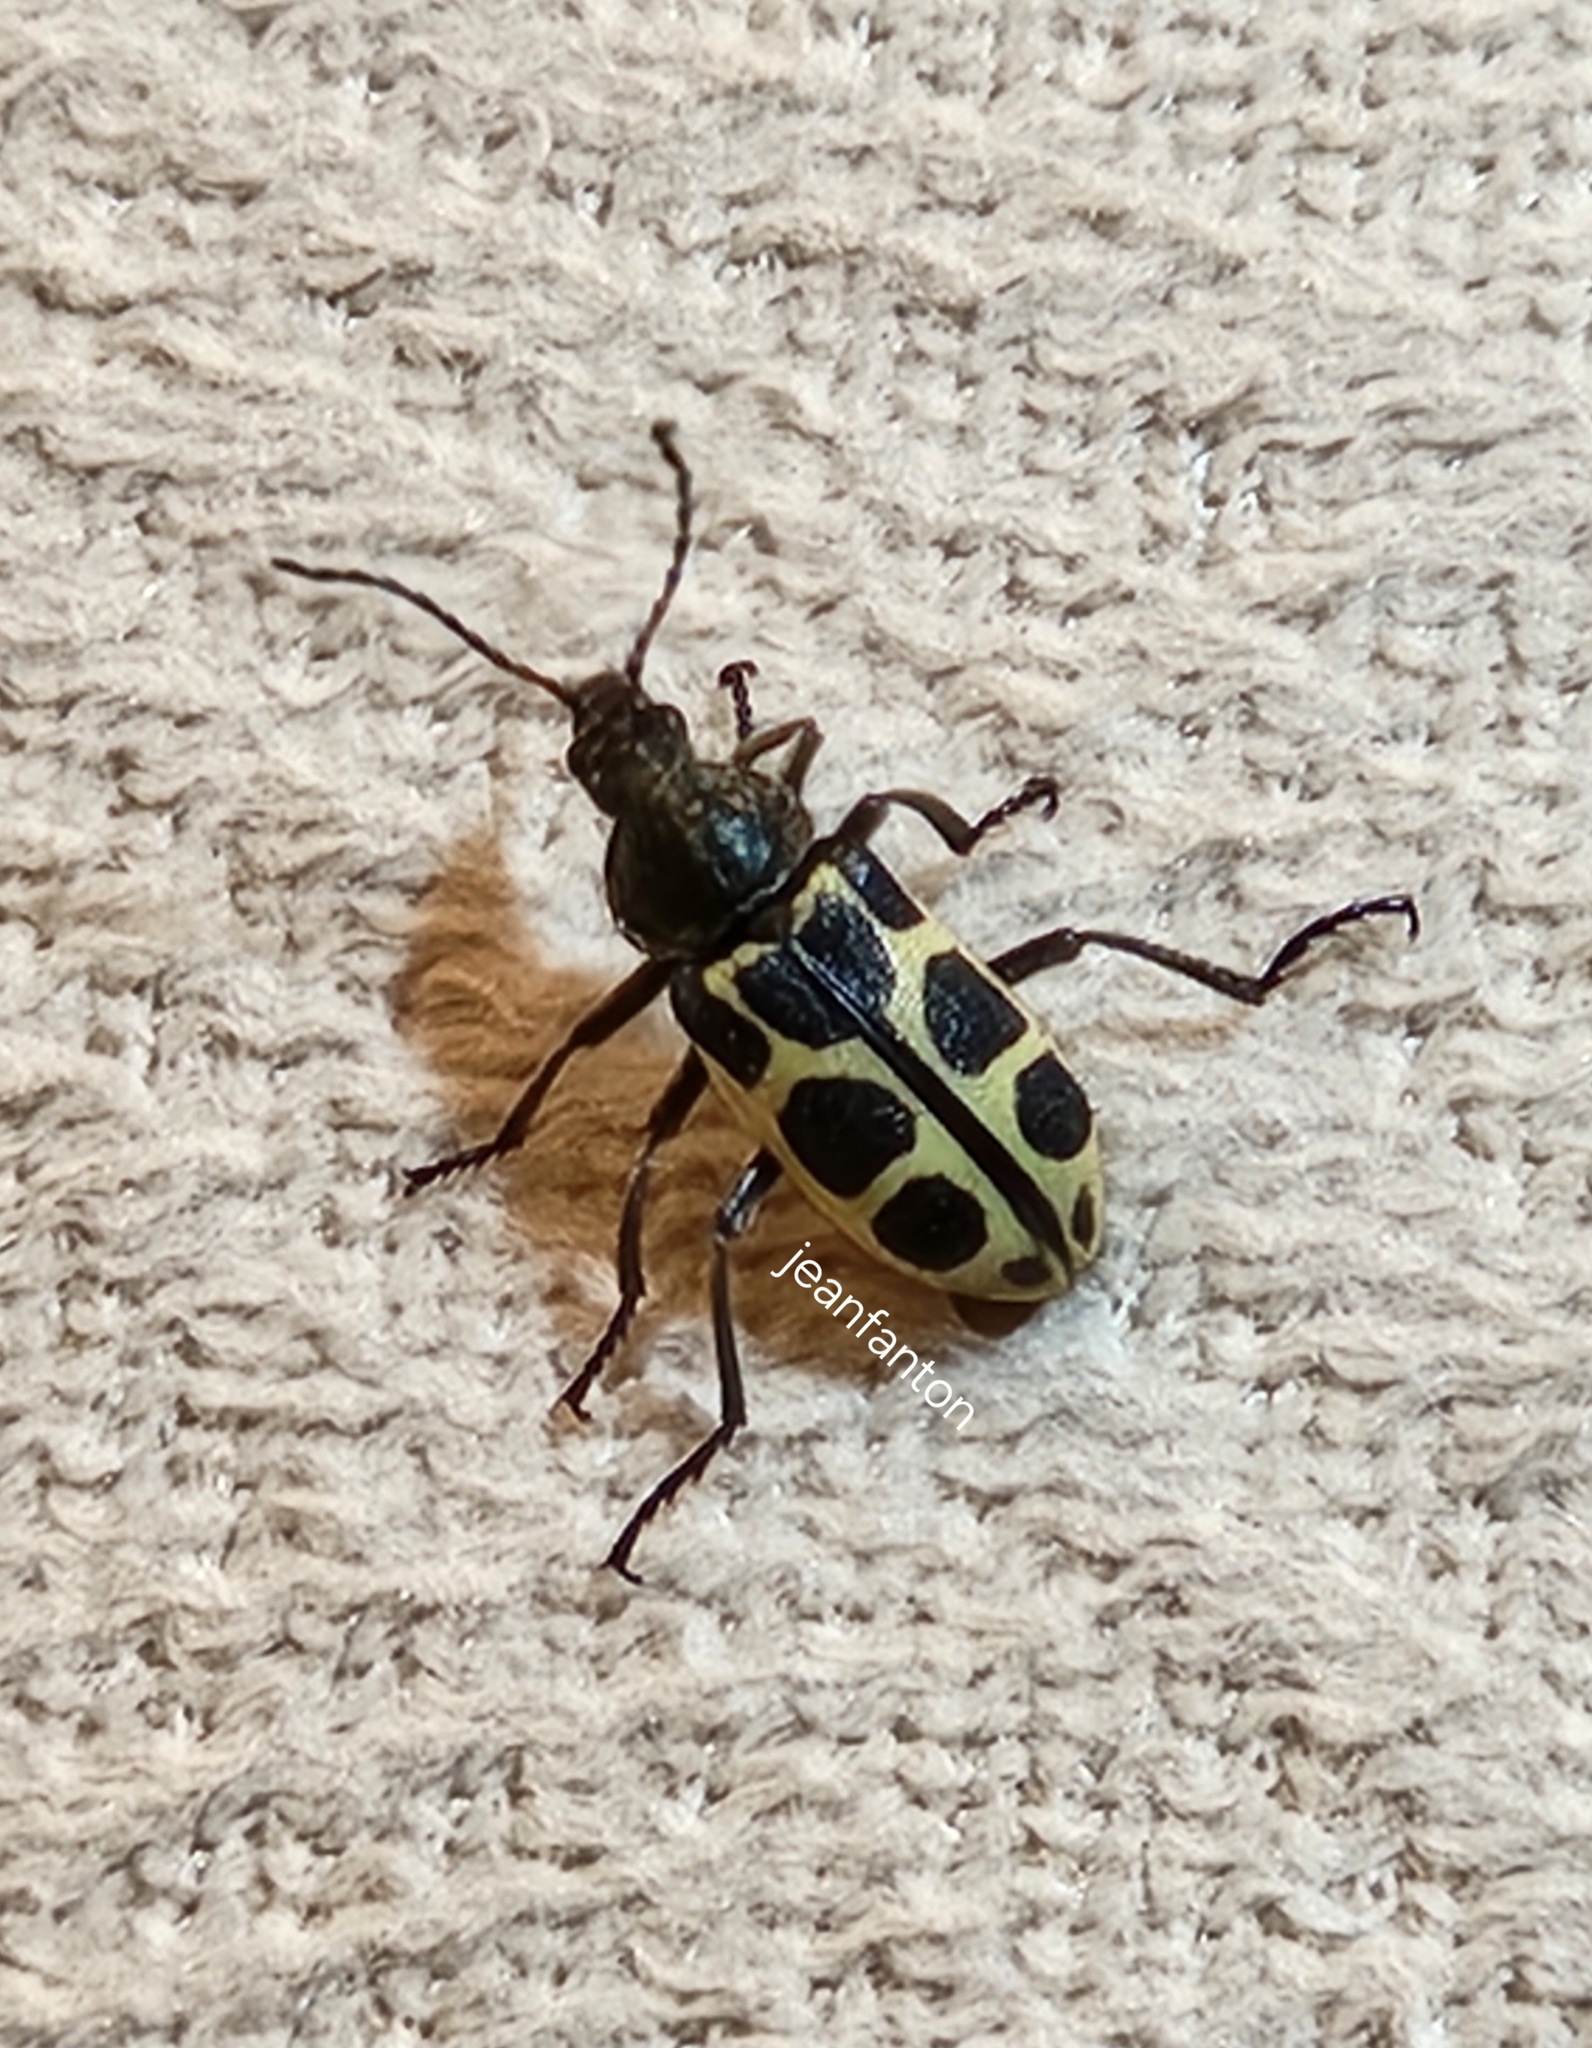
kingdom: Animalia
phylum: Arthropoda
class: Insecta
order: Coleoptera
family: Melyridae
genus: Astylus
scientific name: Astylus
